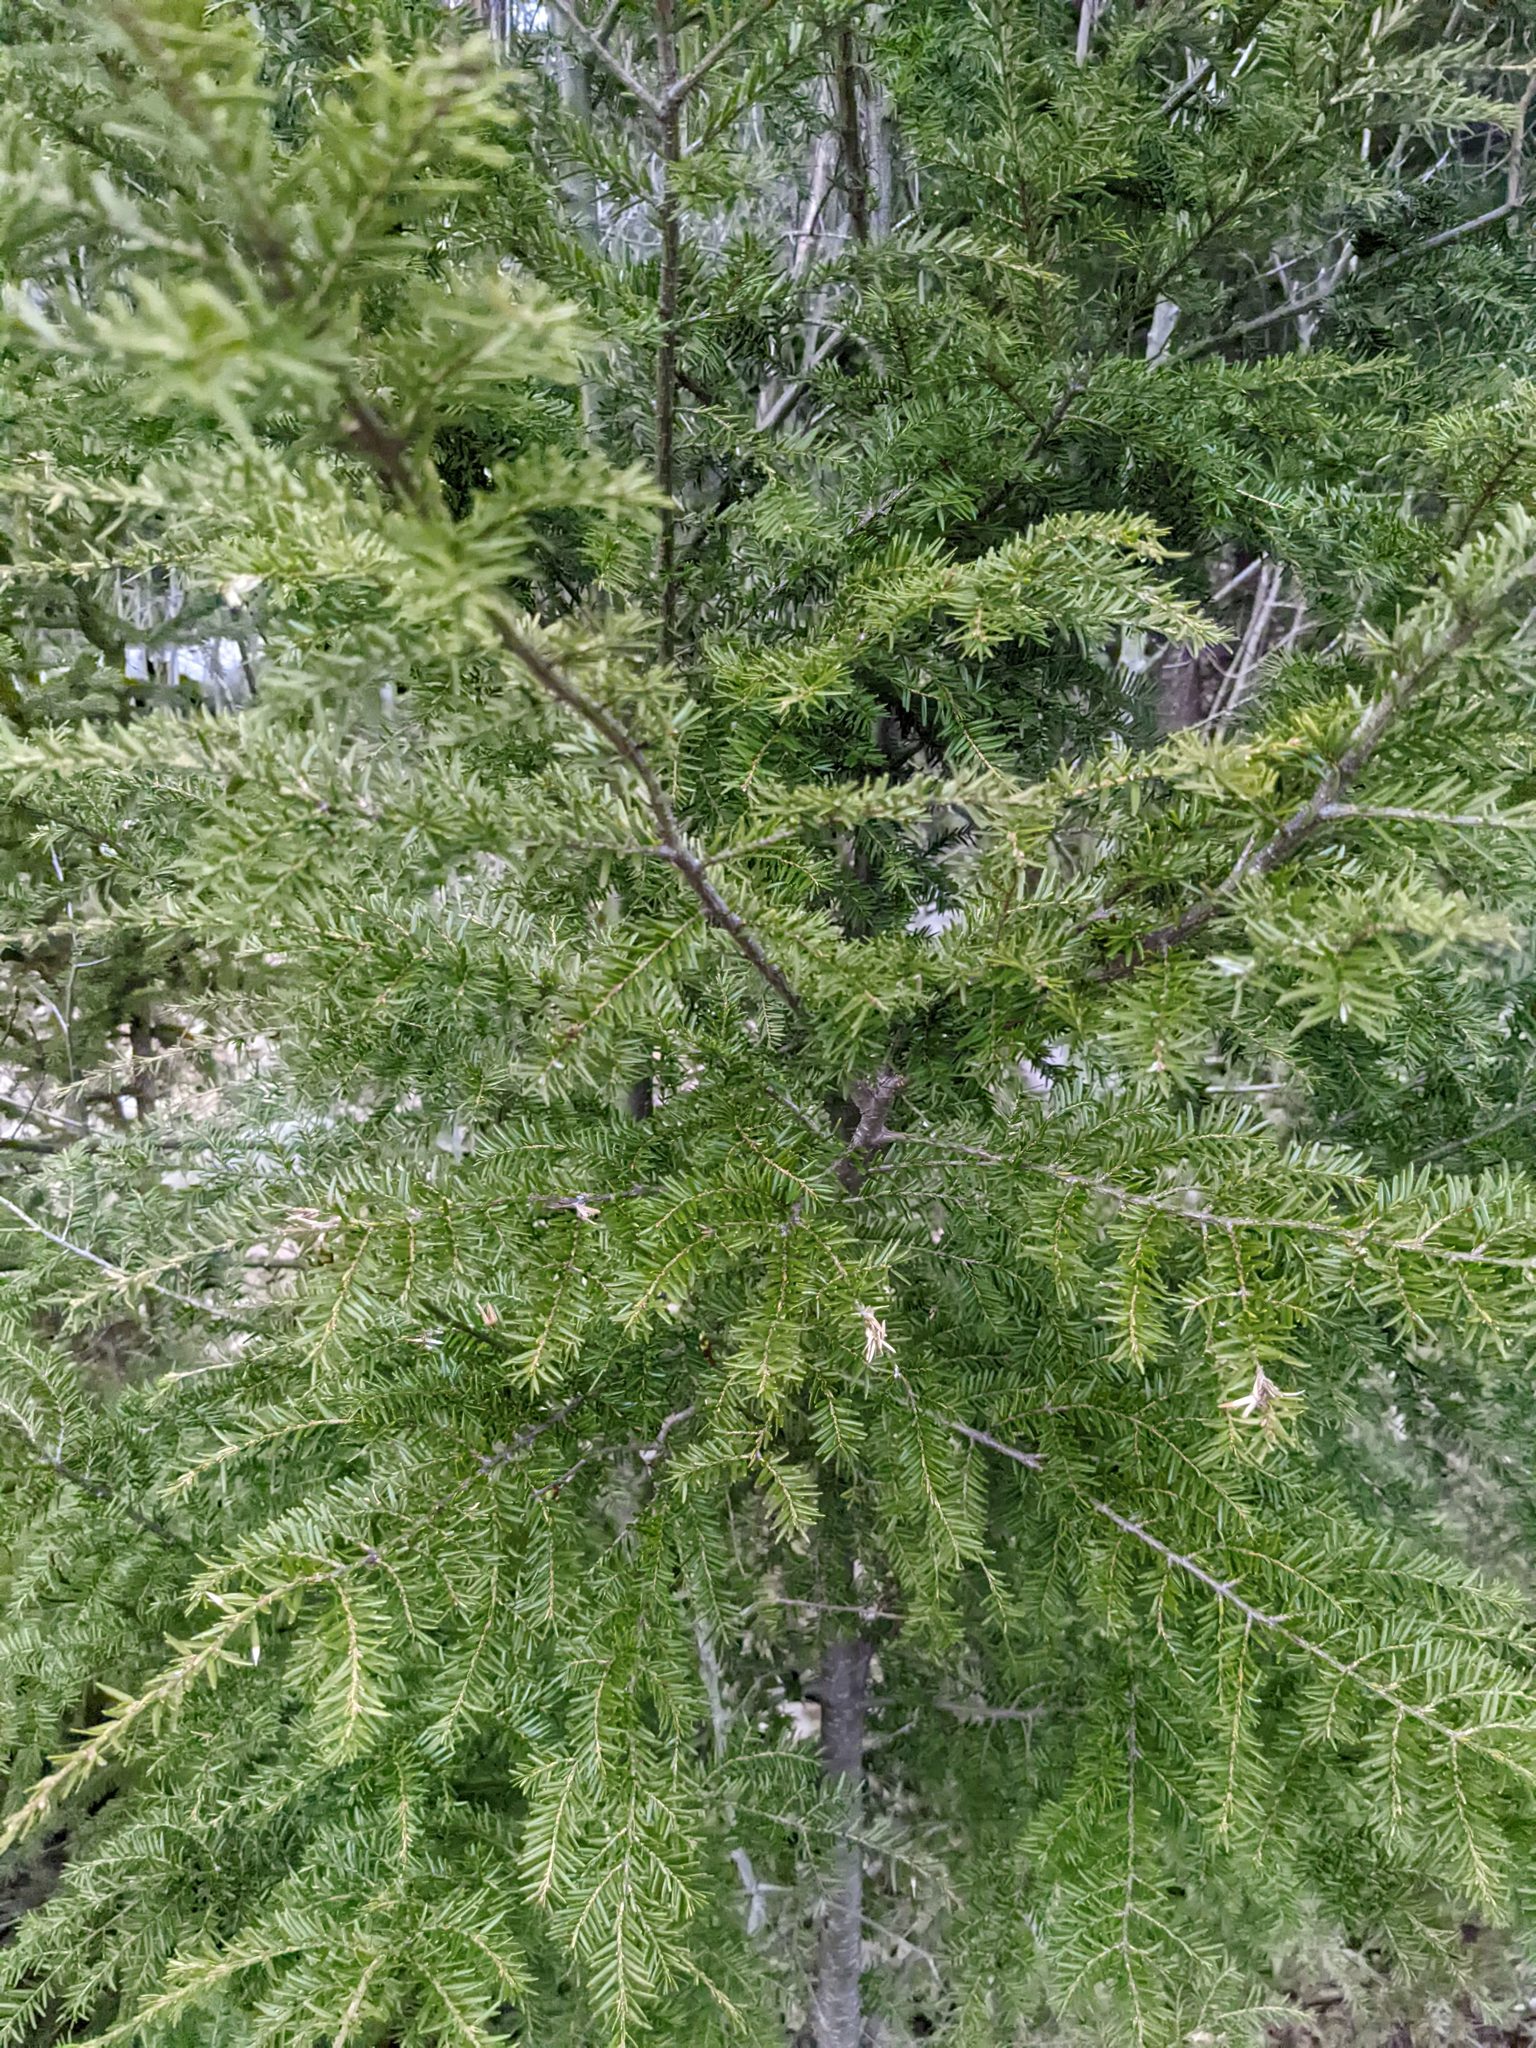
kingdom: Plantae
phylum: Tracheophyta
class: Pinopsida
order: Pinales
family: Pinaceae
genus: Tsuga
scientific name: Tsuga canadensis
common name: Eastern hemlock
